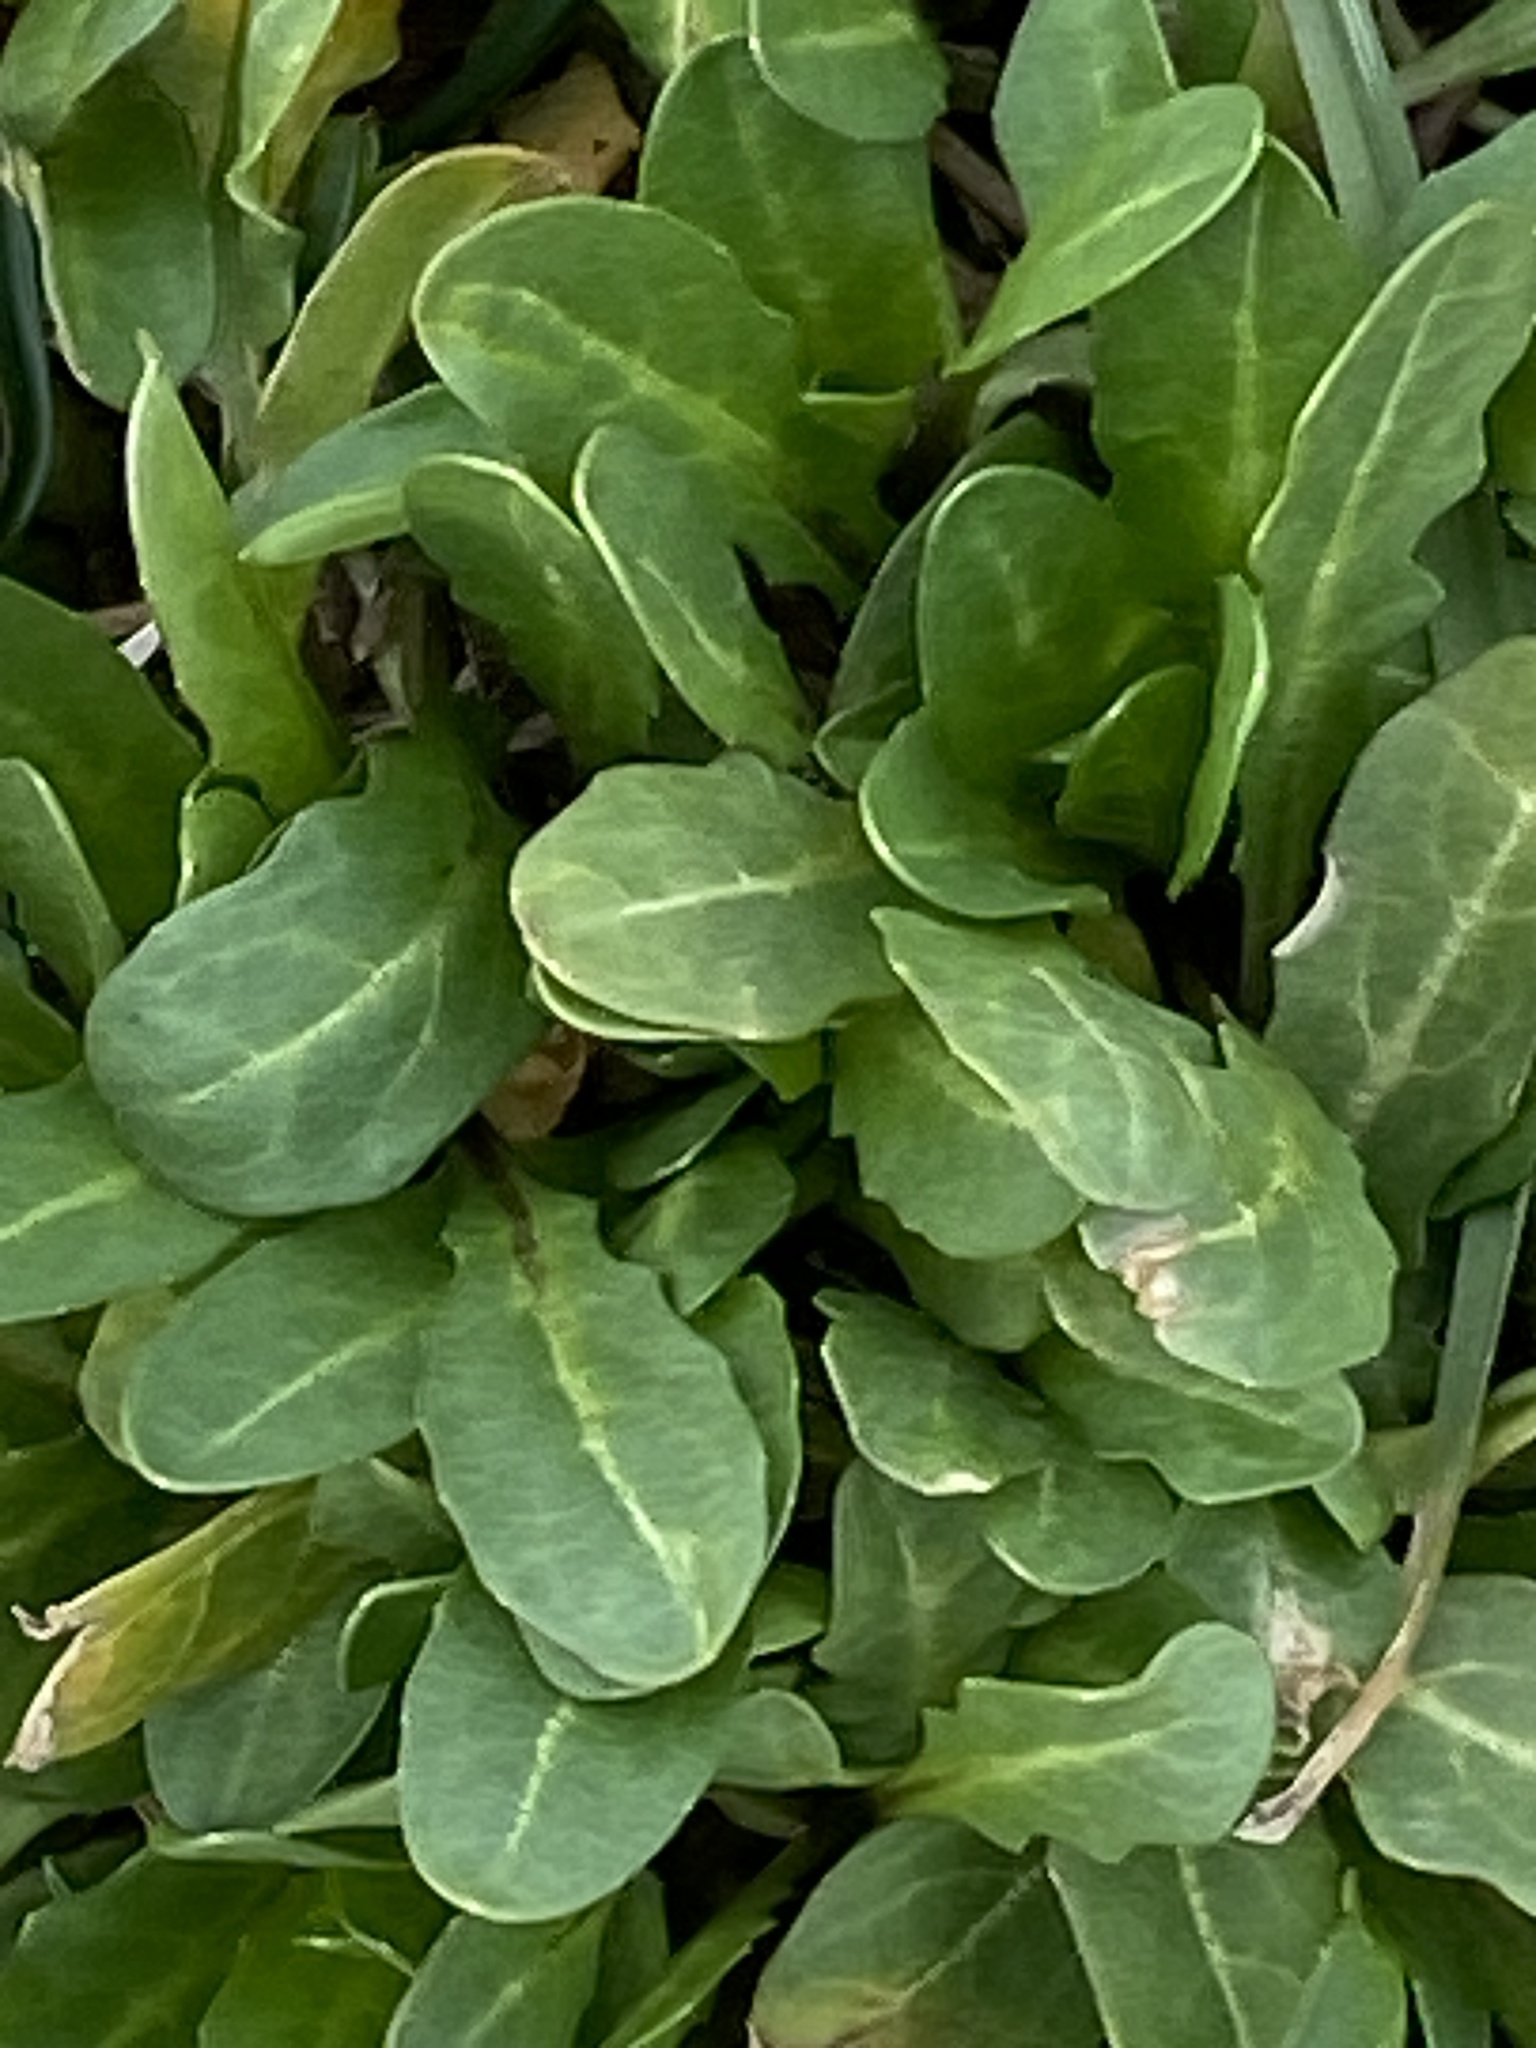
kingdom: Plantae
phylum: Tracheophyta
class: Magnoliopsida
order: Brassicales
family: Brassicaceae
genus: Thlaspi
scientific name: Thlaspi arvense
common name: Field pennycress
